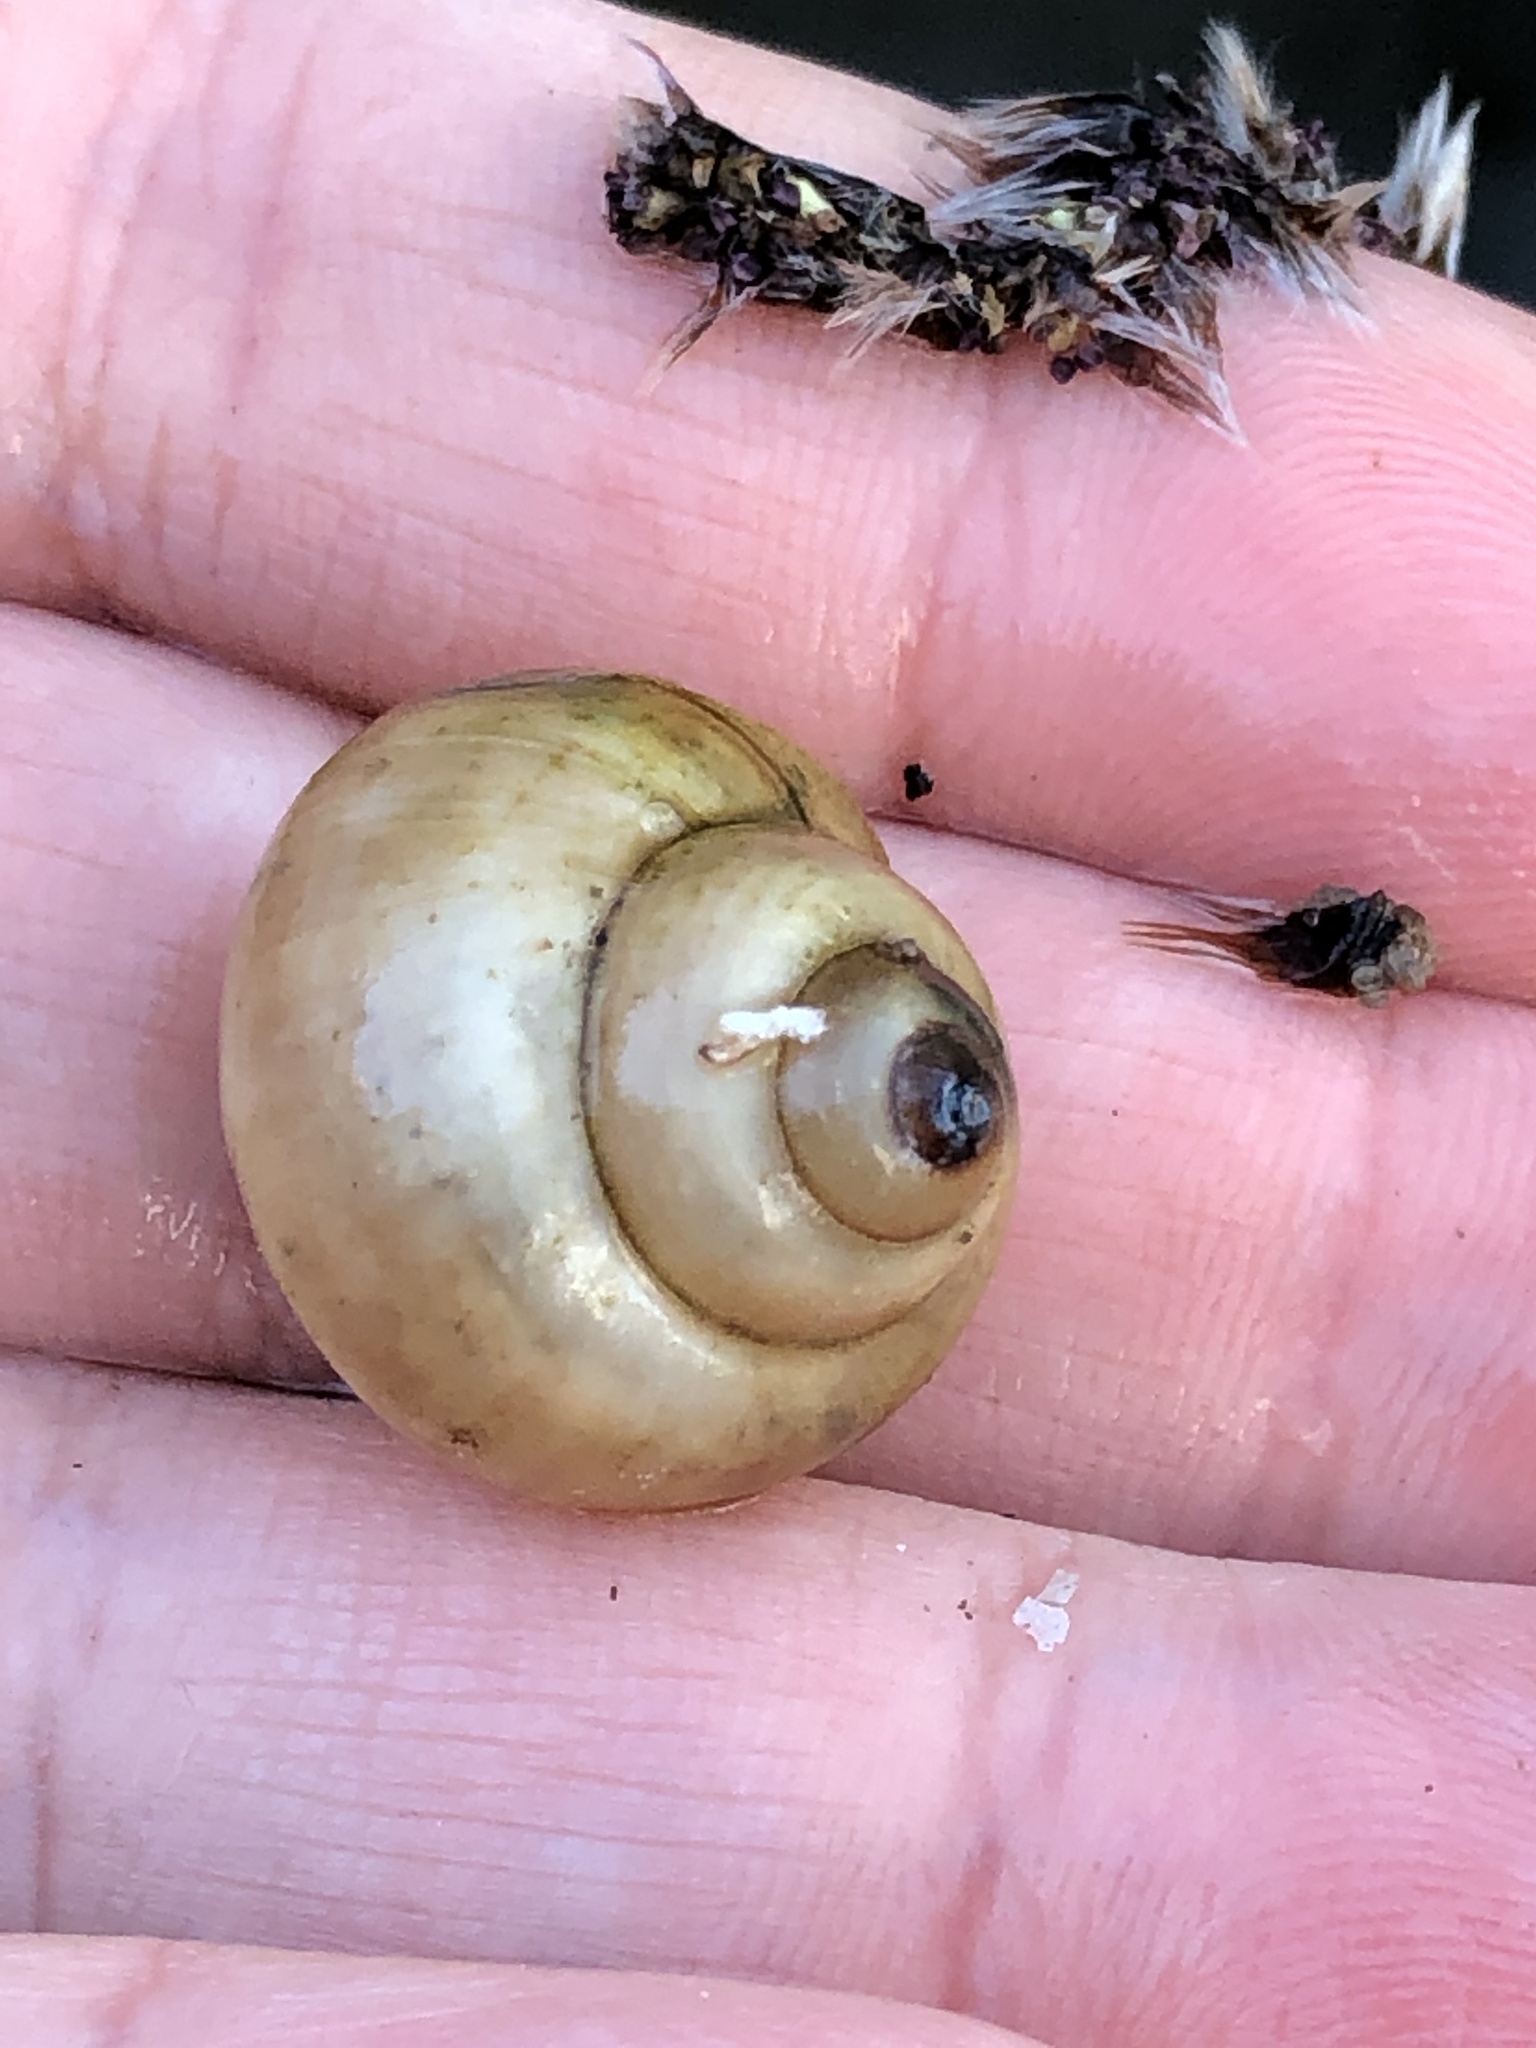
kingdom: Animalia
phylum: Mollusca
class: Gastropoda
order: Architaenioglossa
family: Viviparidae
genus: Cipangopaludina
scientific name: Cipangopaludina chinensis
